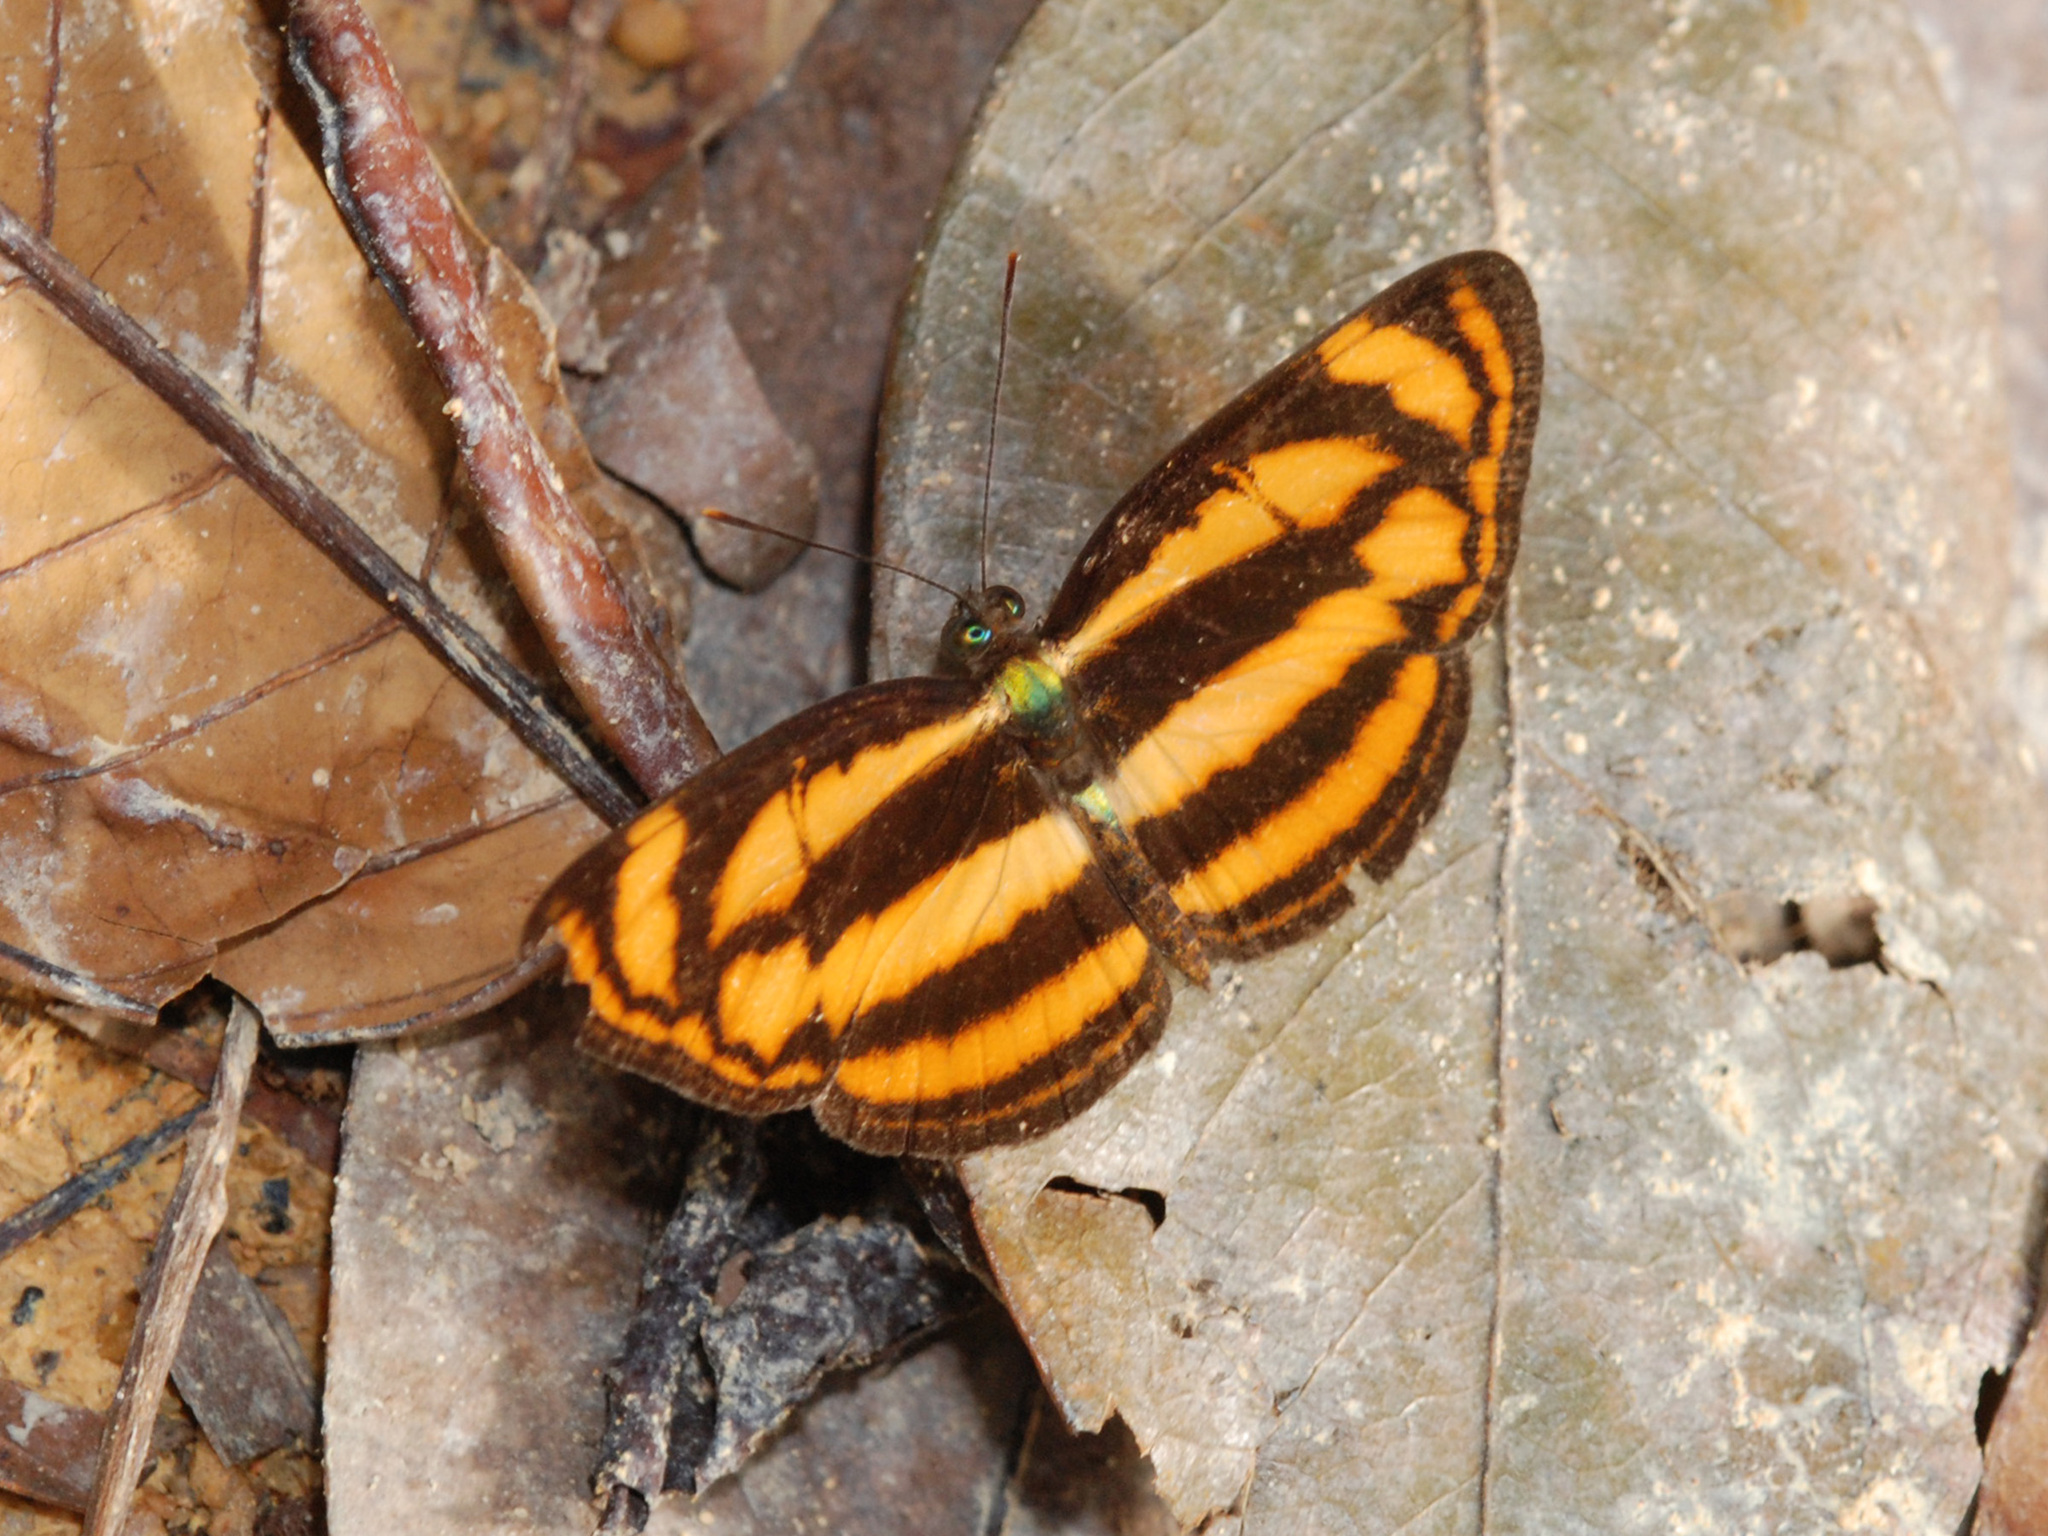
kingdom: Animalia
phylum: Arthropoda
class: Insecta
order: Lepidoptera
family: Nymphalidae
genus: Lasippa
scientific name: Lasippa tiga
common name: Malayan lascar
